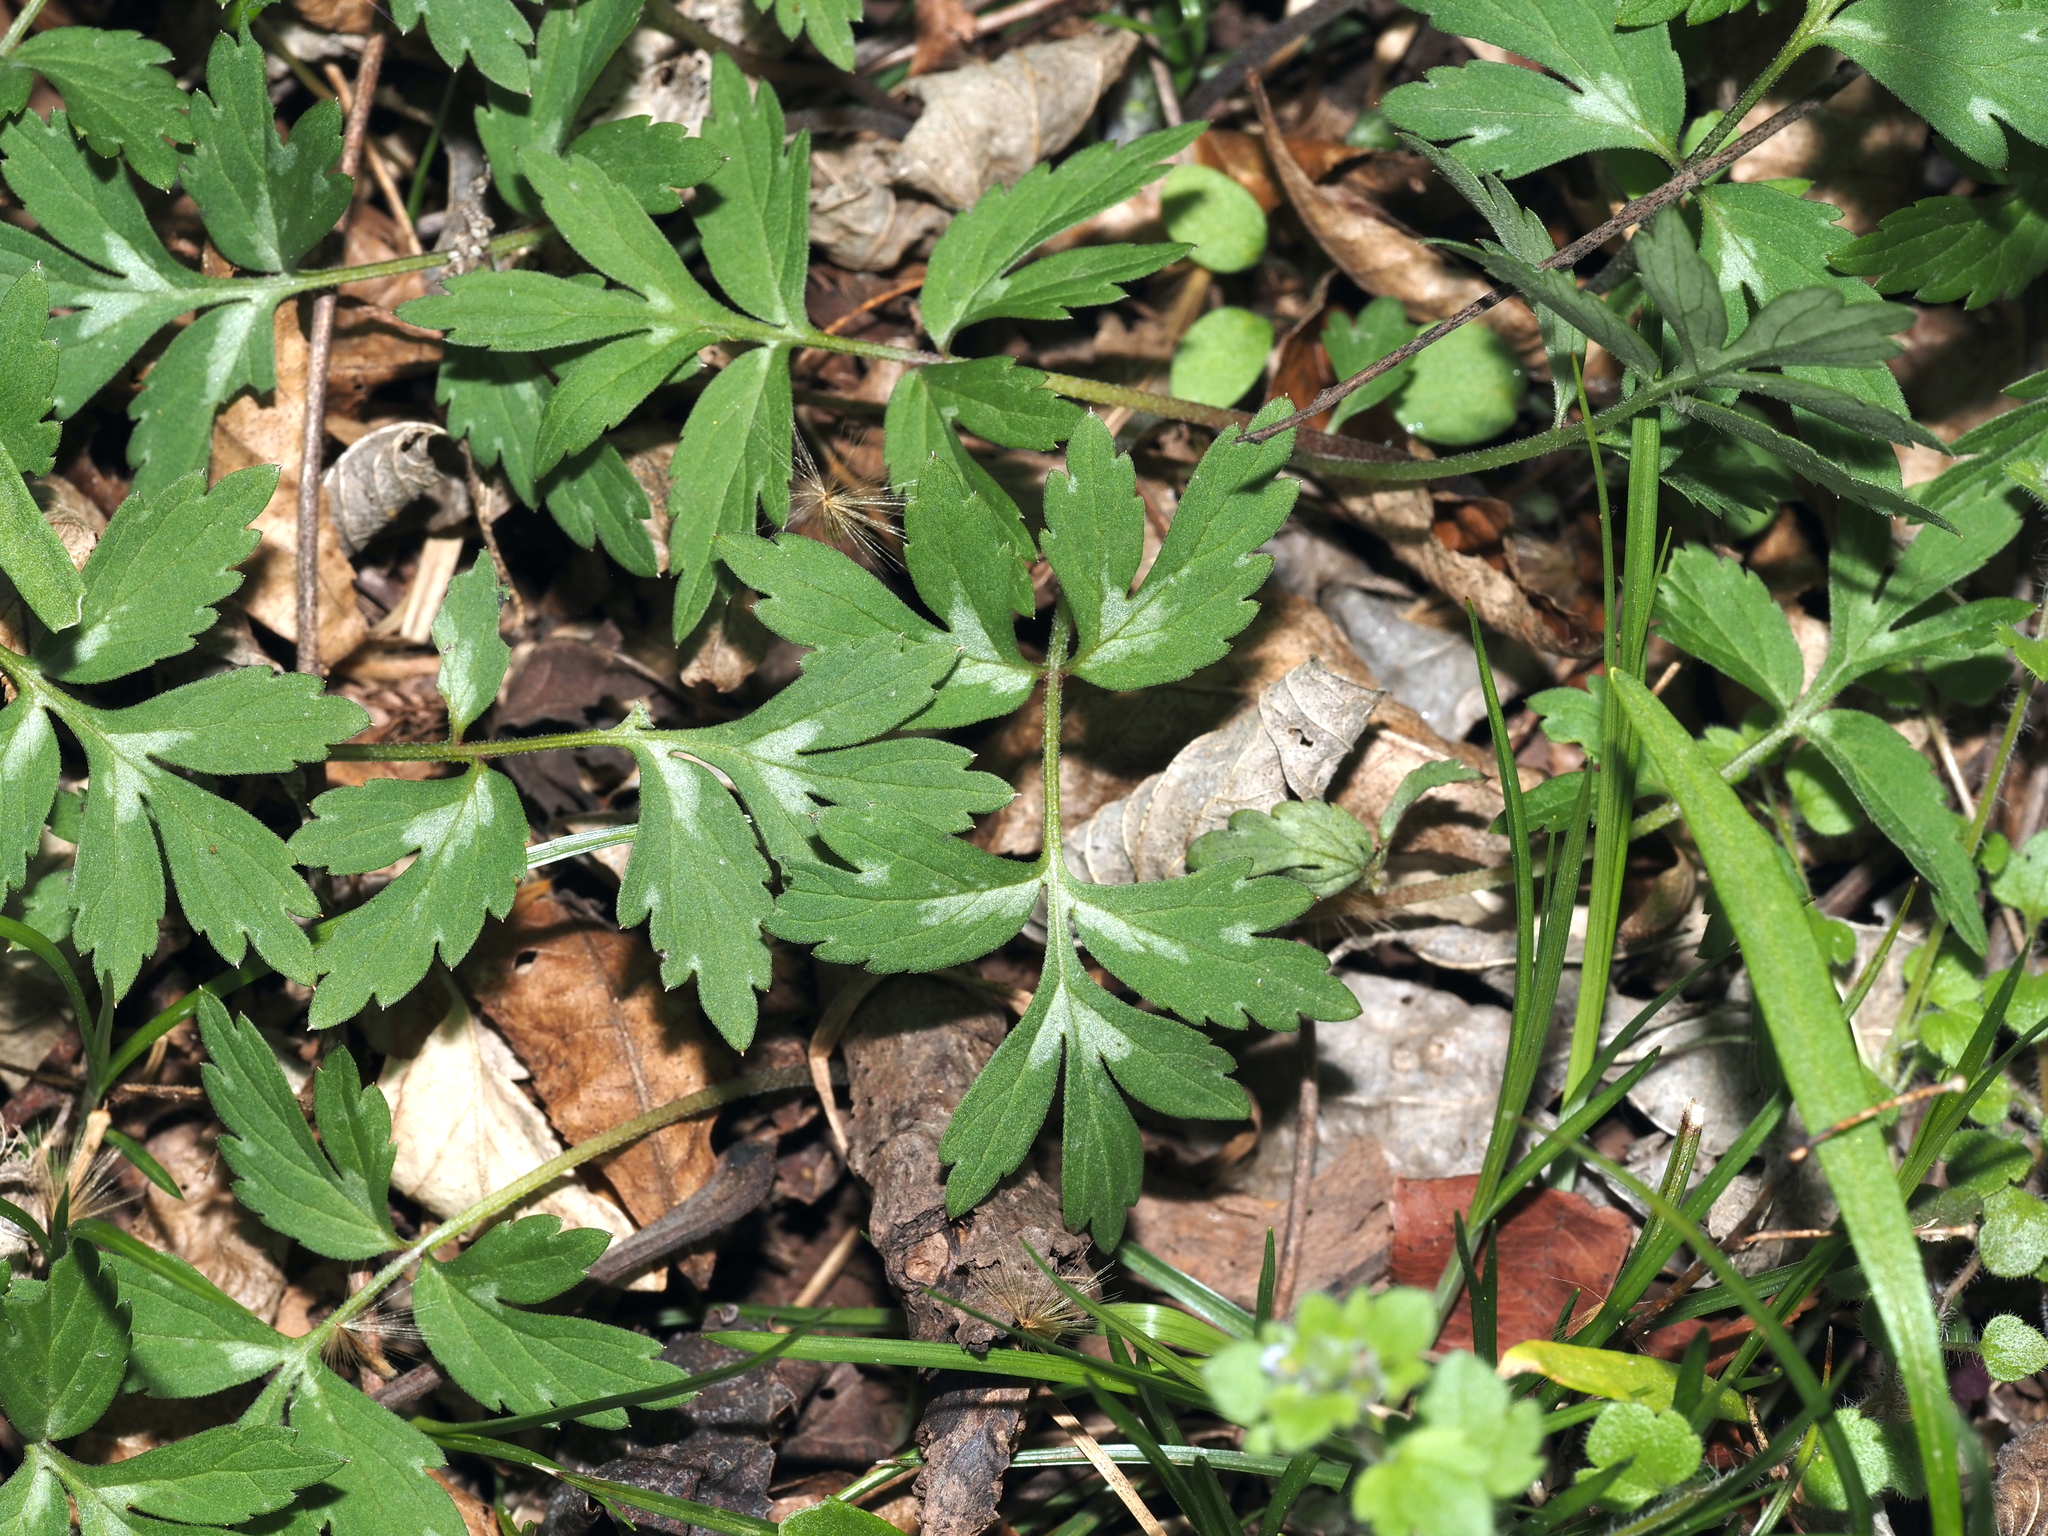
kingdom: Plantae
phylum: Tracheophyta
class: Magnoliopsida
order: Boraginales
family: Hydrophyllaceae
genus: Hydrophyllum
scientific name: Hydrophyllum virginianum
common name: Virginia waterleaf
